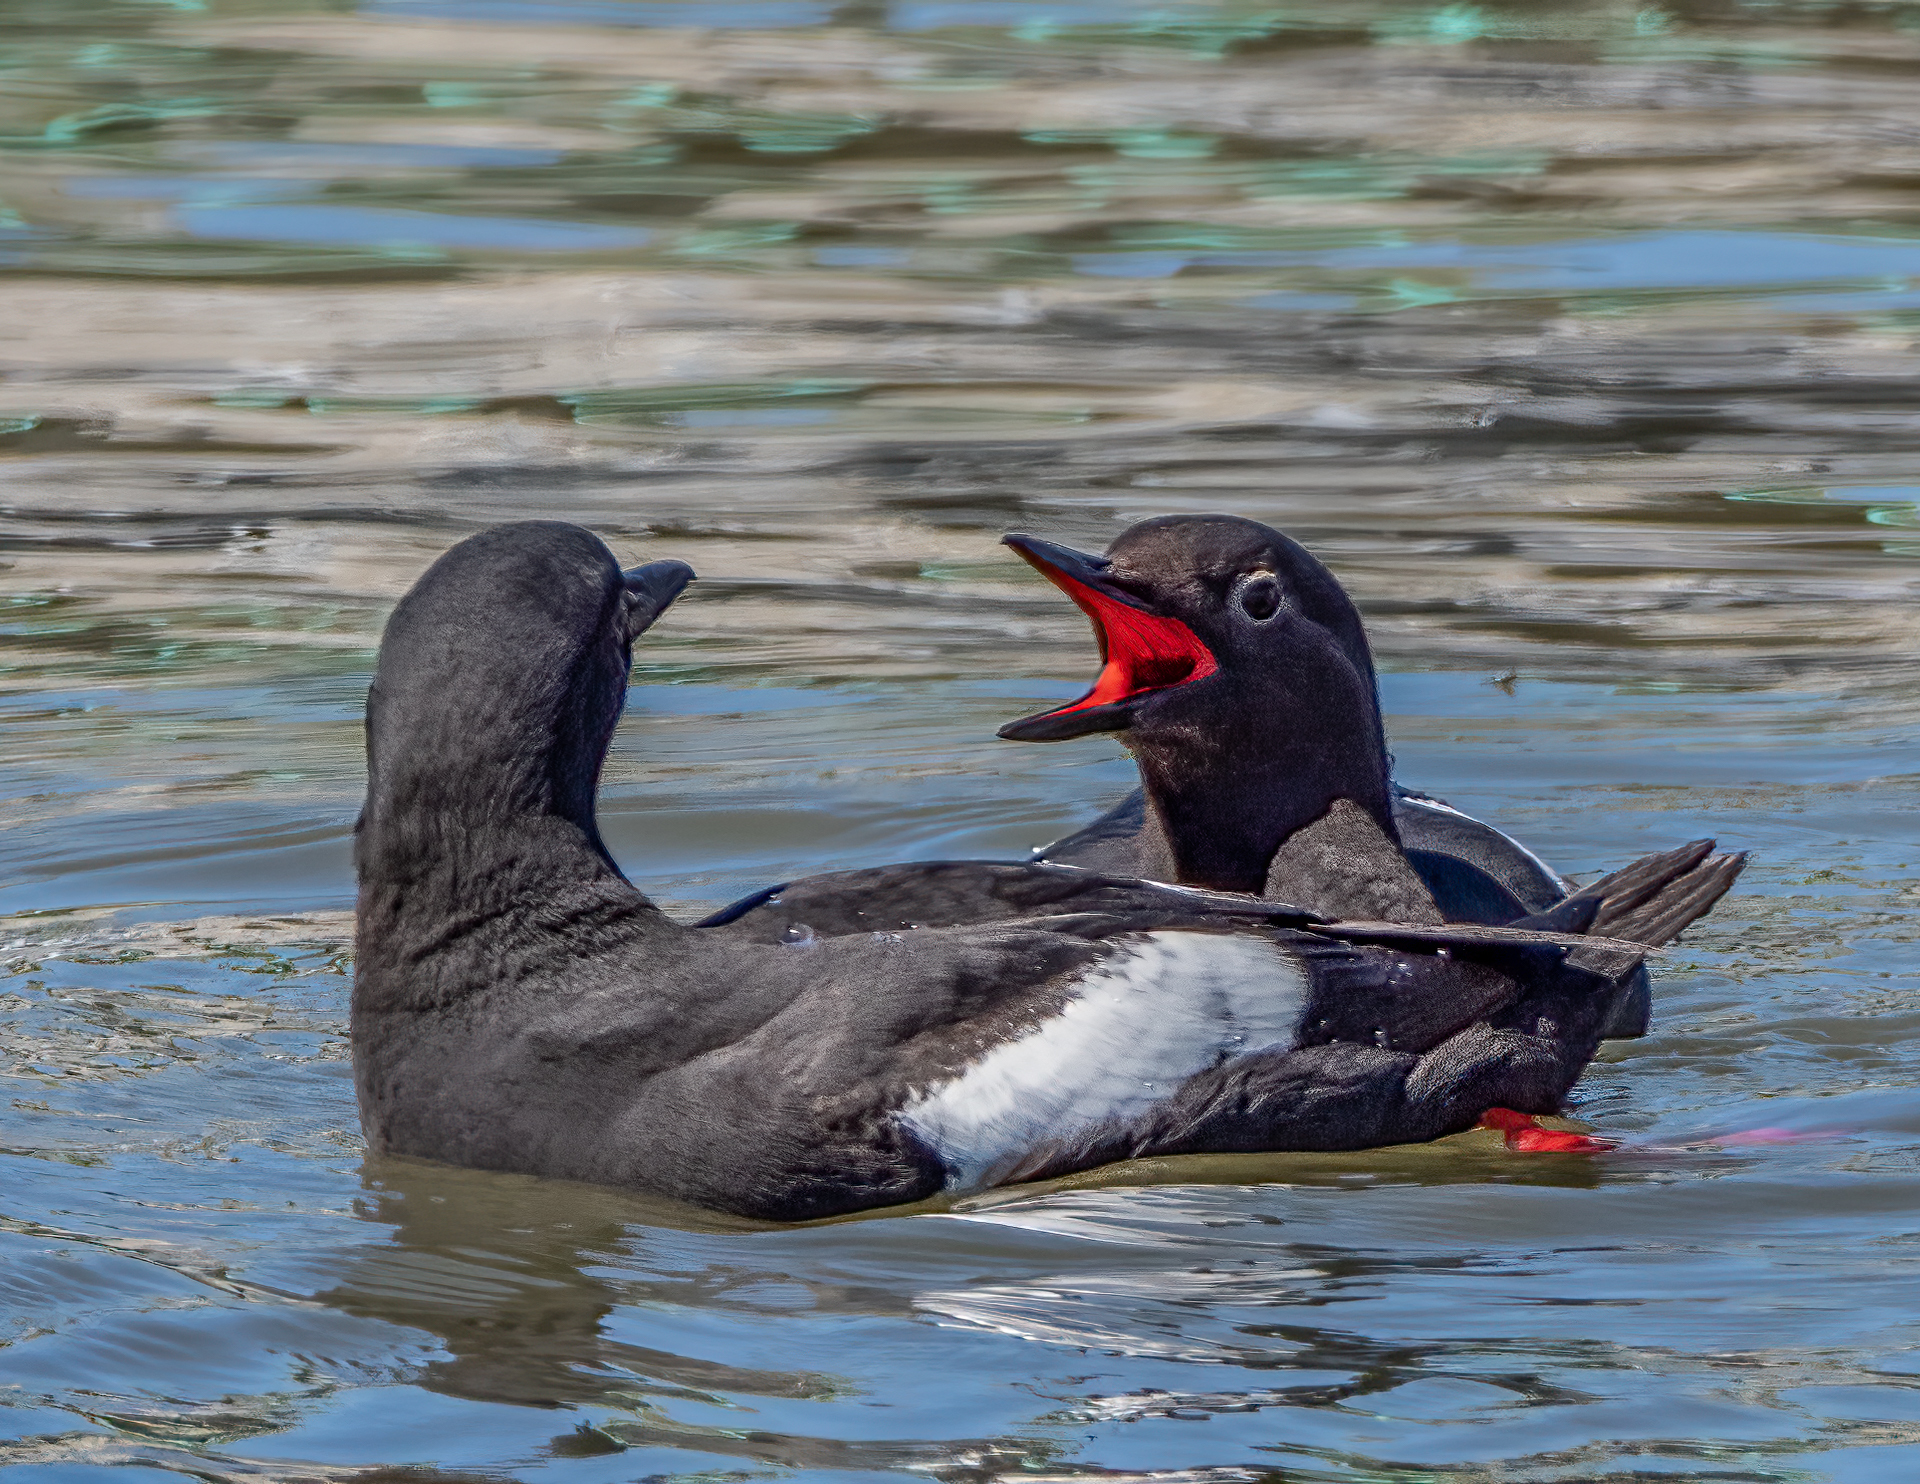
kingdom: Animalia
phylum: Chordata
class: Aves
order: Charadriiformes
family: Alcidae
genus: Cepphus
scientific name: Cepphus columba
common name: Pigeon guillemot
